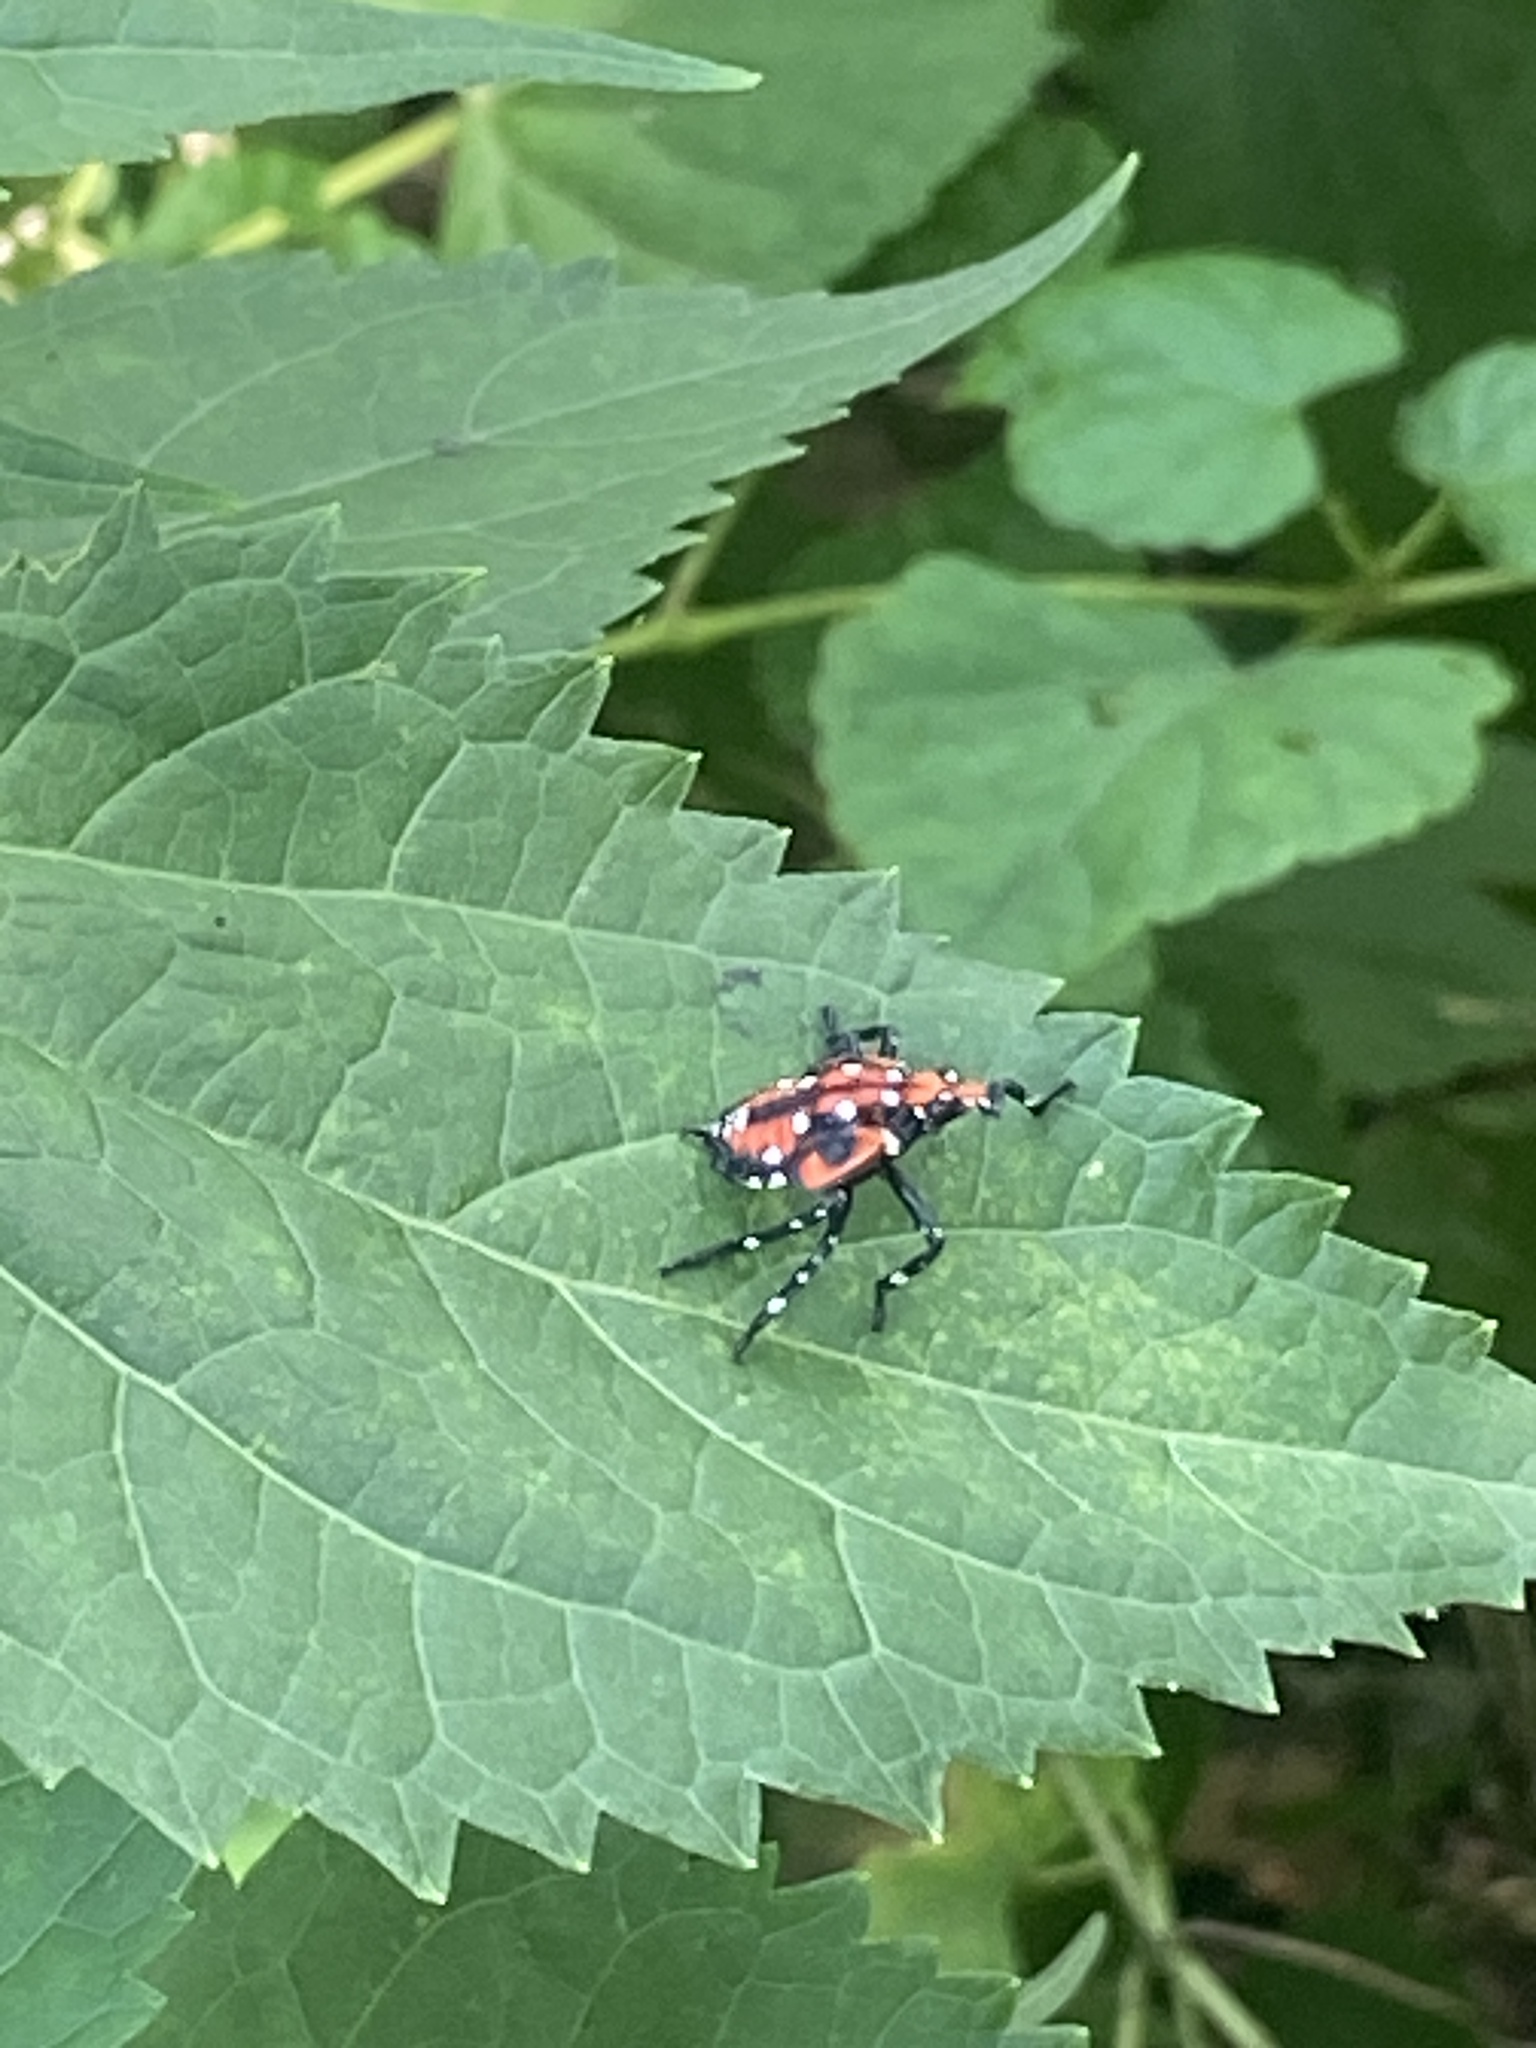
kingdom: Animalia
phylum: Arthropoda
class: Insecta
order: Hemiptera
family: Fulgoridae
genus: Lycorma
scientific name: Lycorma delicatula
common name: Spotted lanternfly
